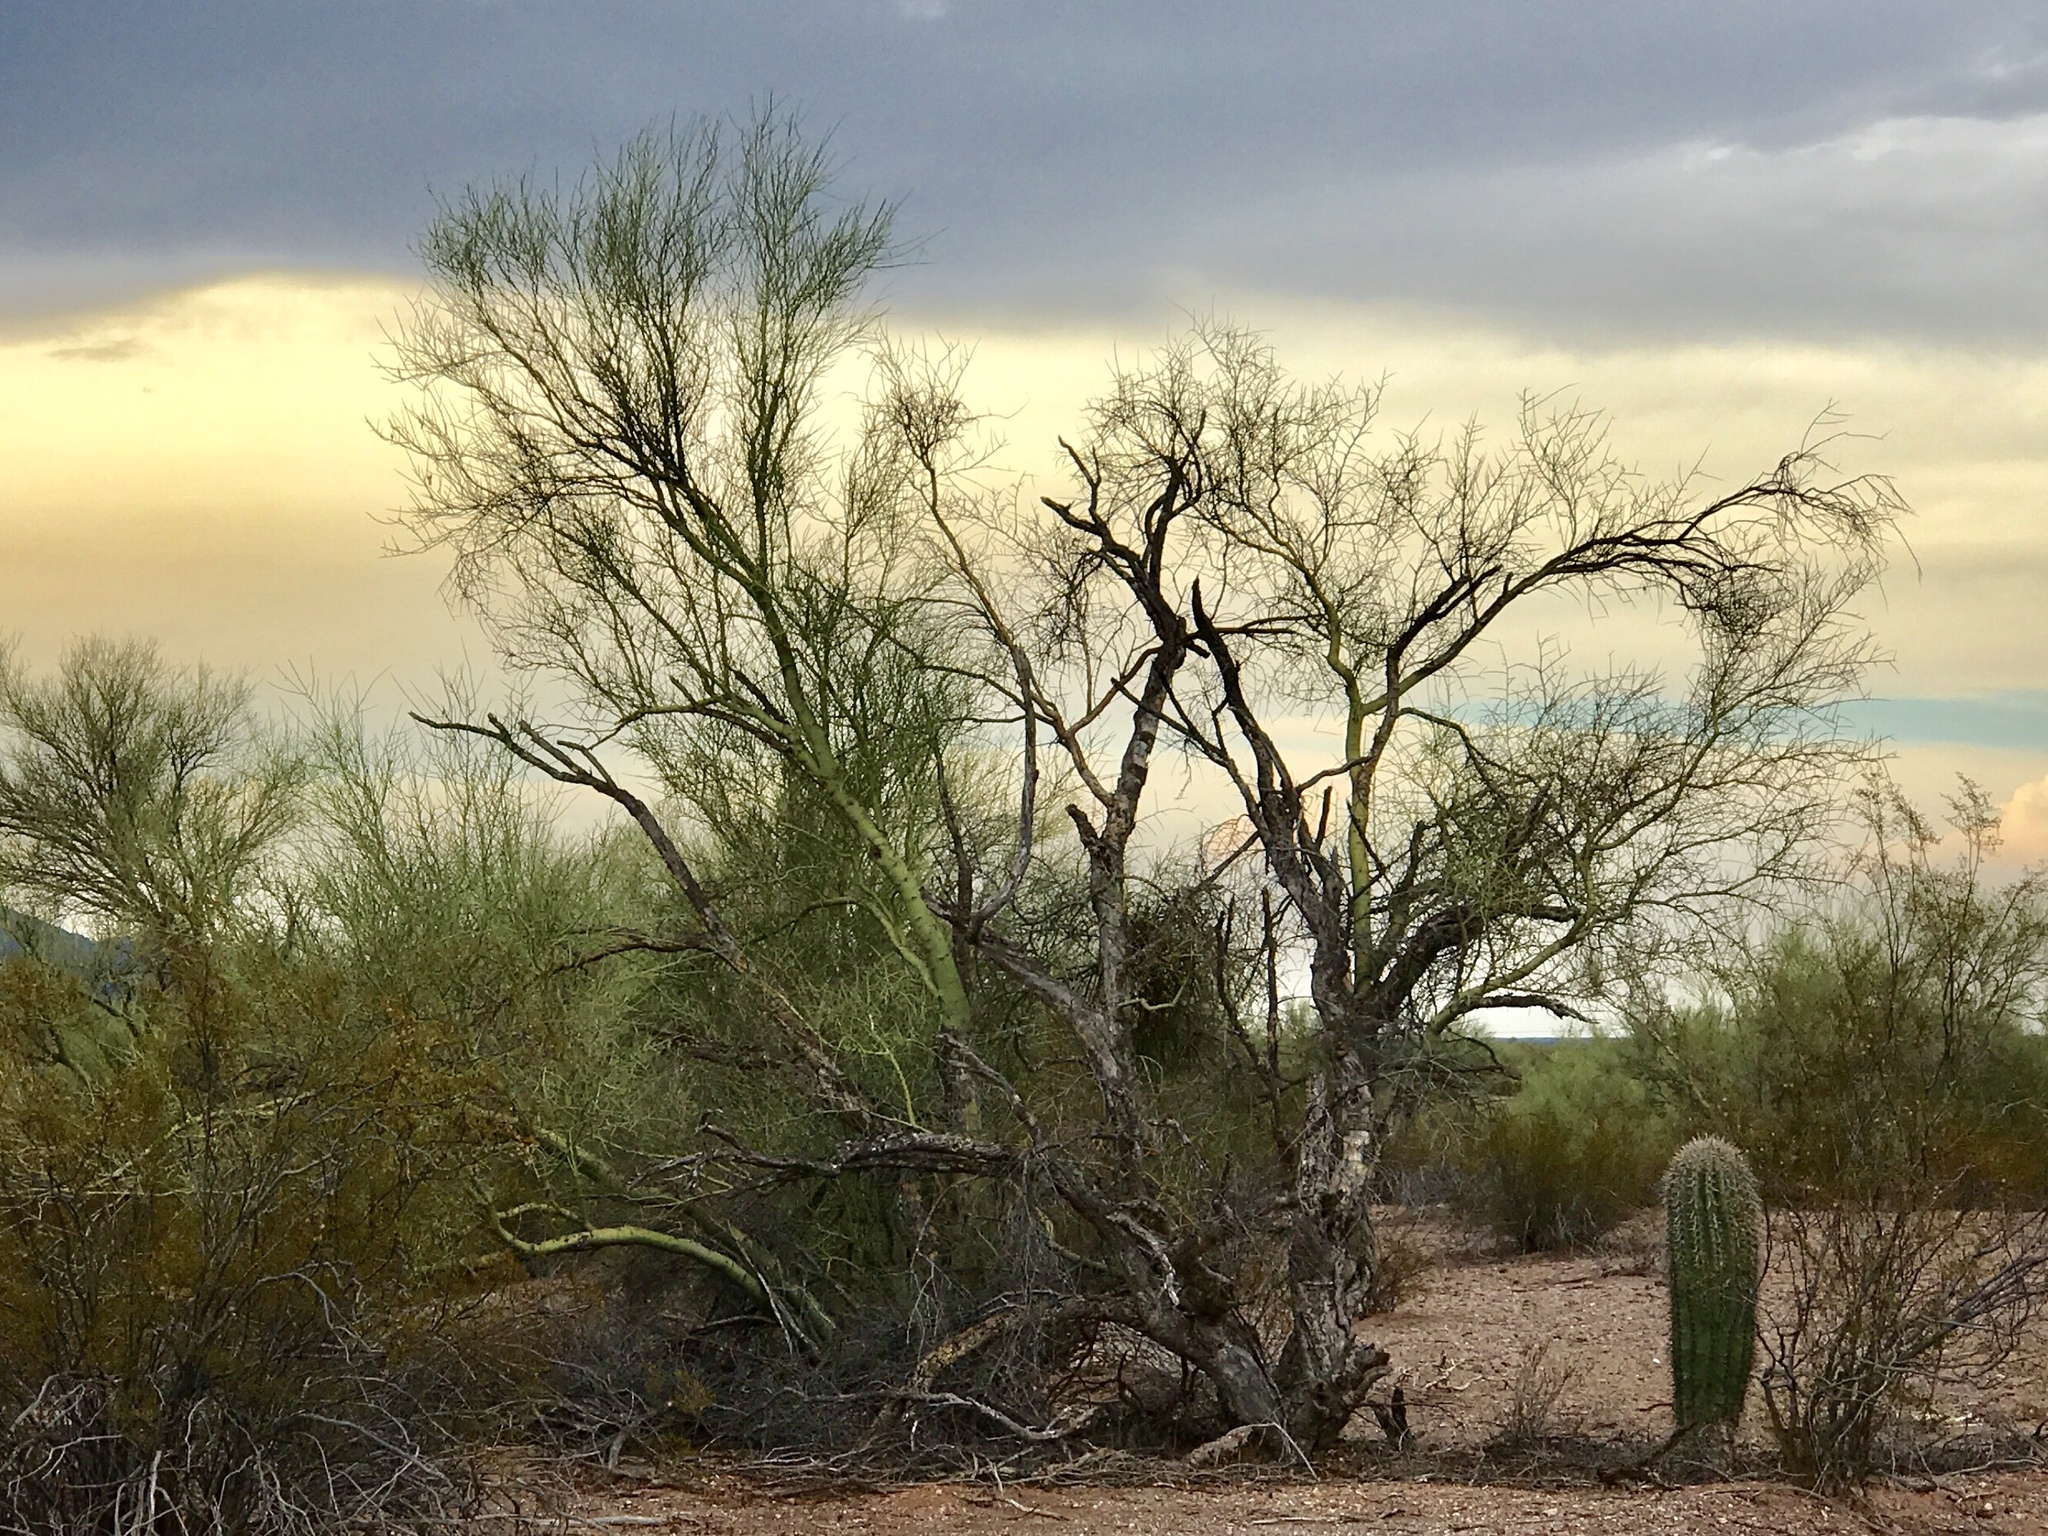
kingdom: Plantae
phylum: Tracheophyta
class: Magnoliopsida
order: Fabales
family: Fabaceae
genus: Parkinsonia
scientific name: Parkinsonia microphylla
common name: Yellow paloverde
